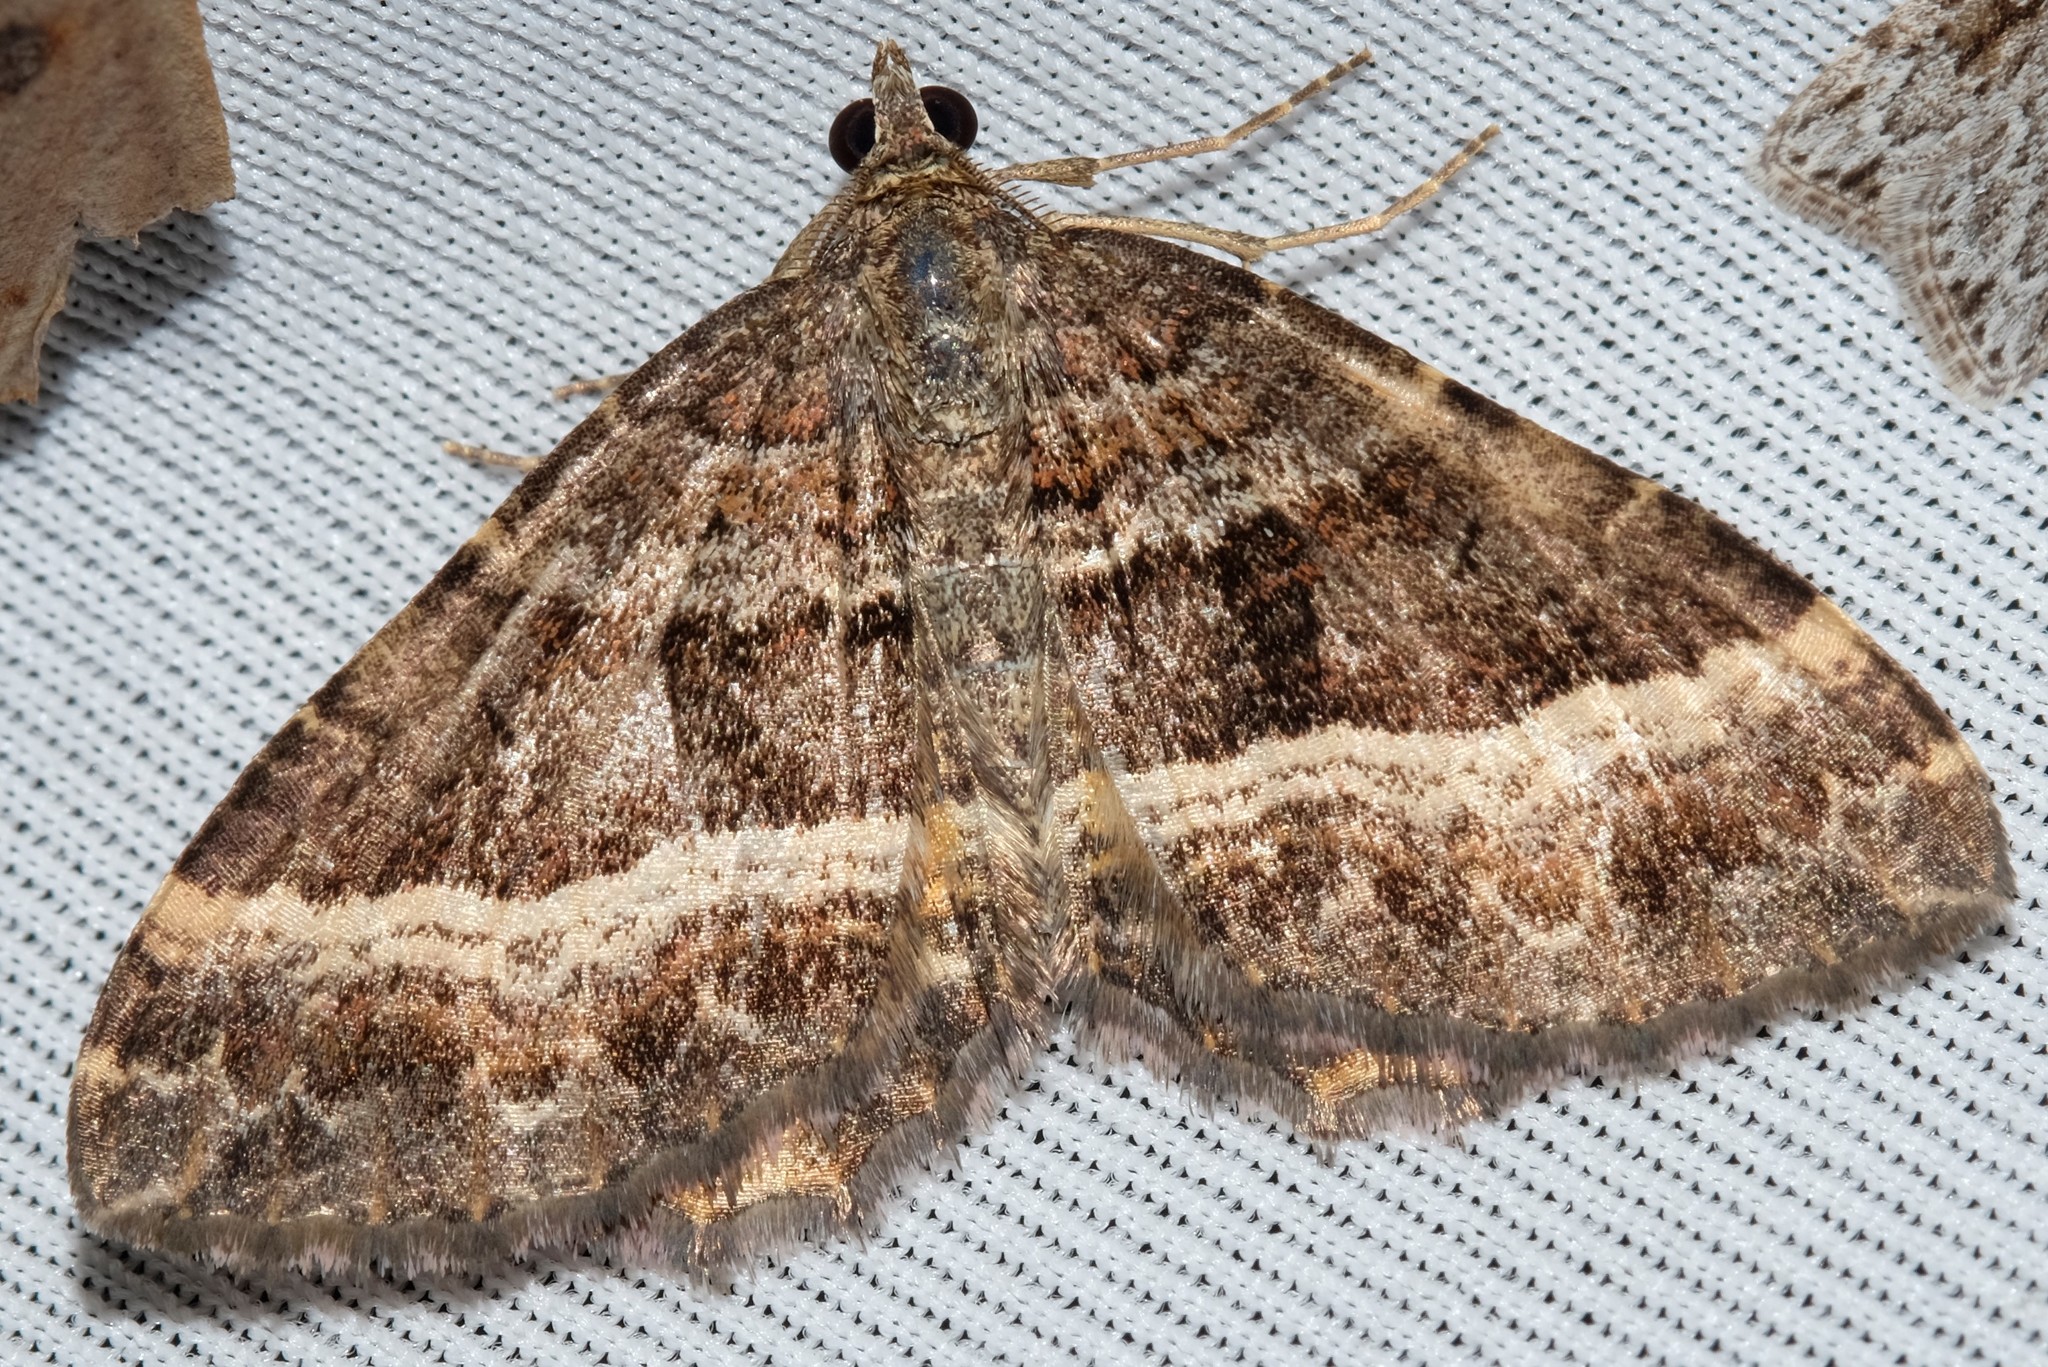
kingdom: Animalia
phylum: Arthropoda
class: Insecta
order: Lepidoptera
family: Geometridae
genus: Chrysolarentia
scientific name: Chrysolarentia vicissata
